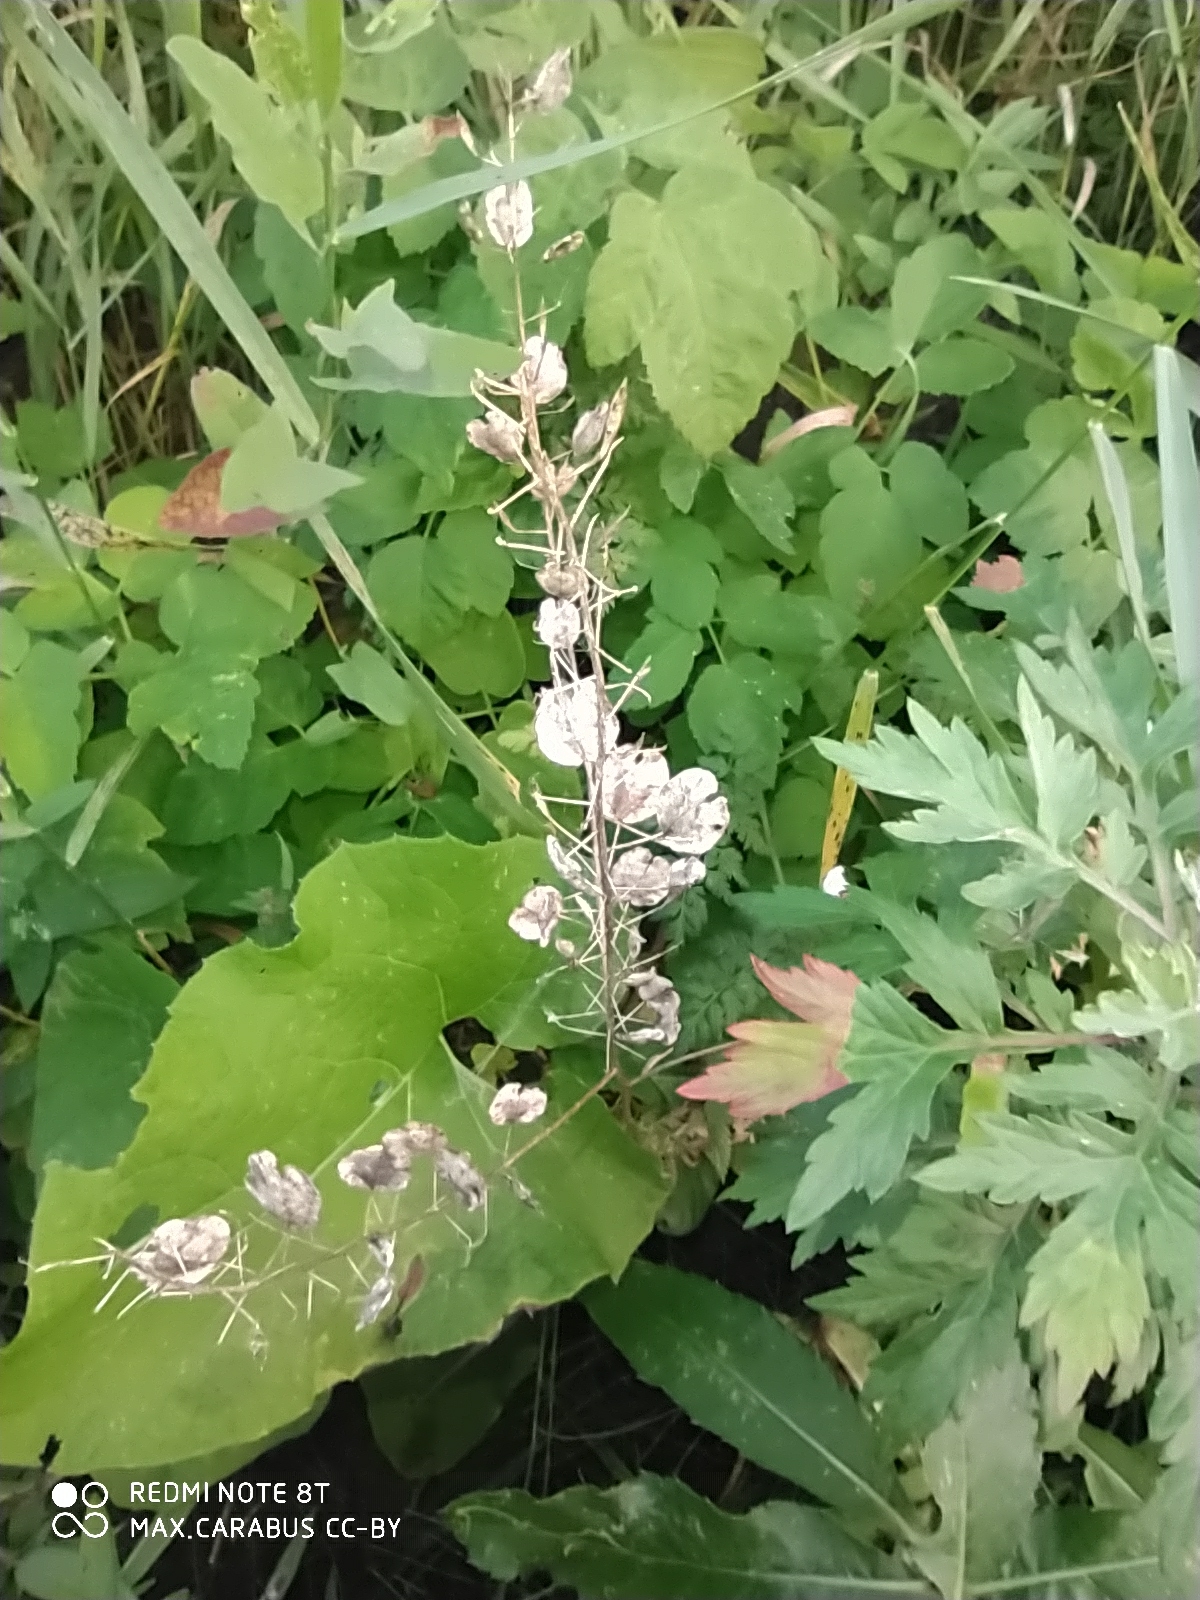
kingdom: Plantae
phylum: Tracheophyta
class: Magnoliopsida
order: Brassicales
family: Brassicaceae
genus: Thlaspi
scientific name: Thlaspi arvense
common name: Field pennycress
